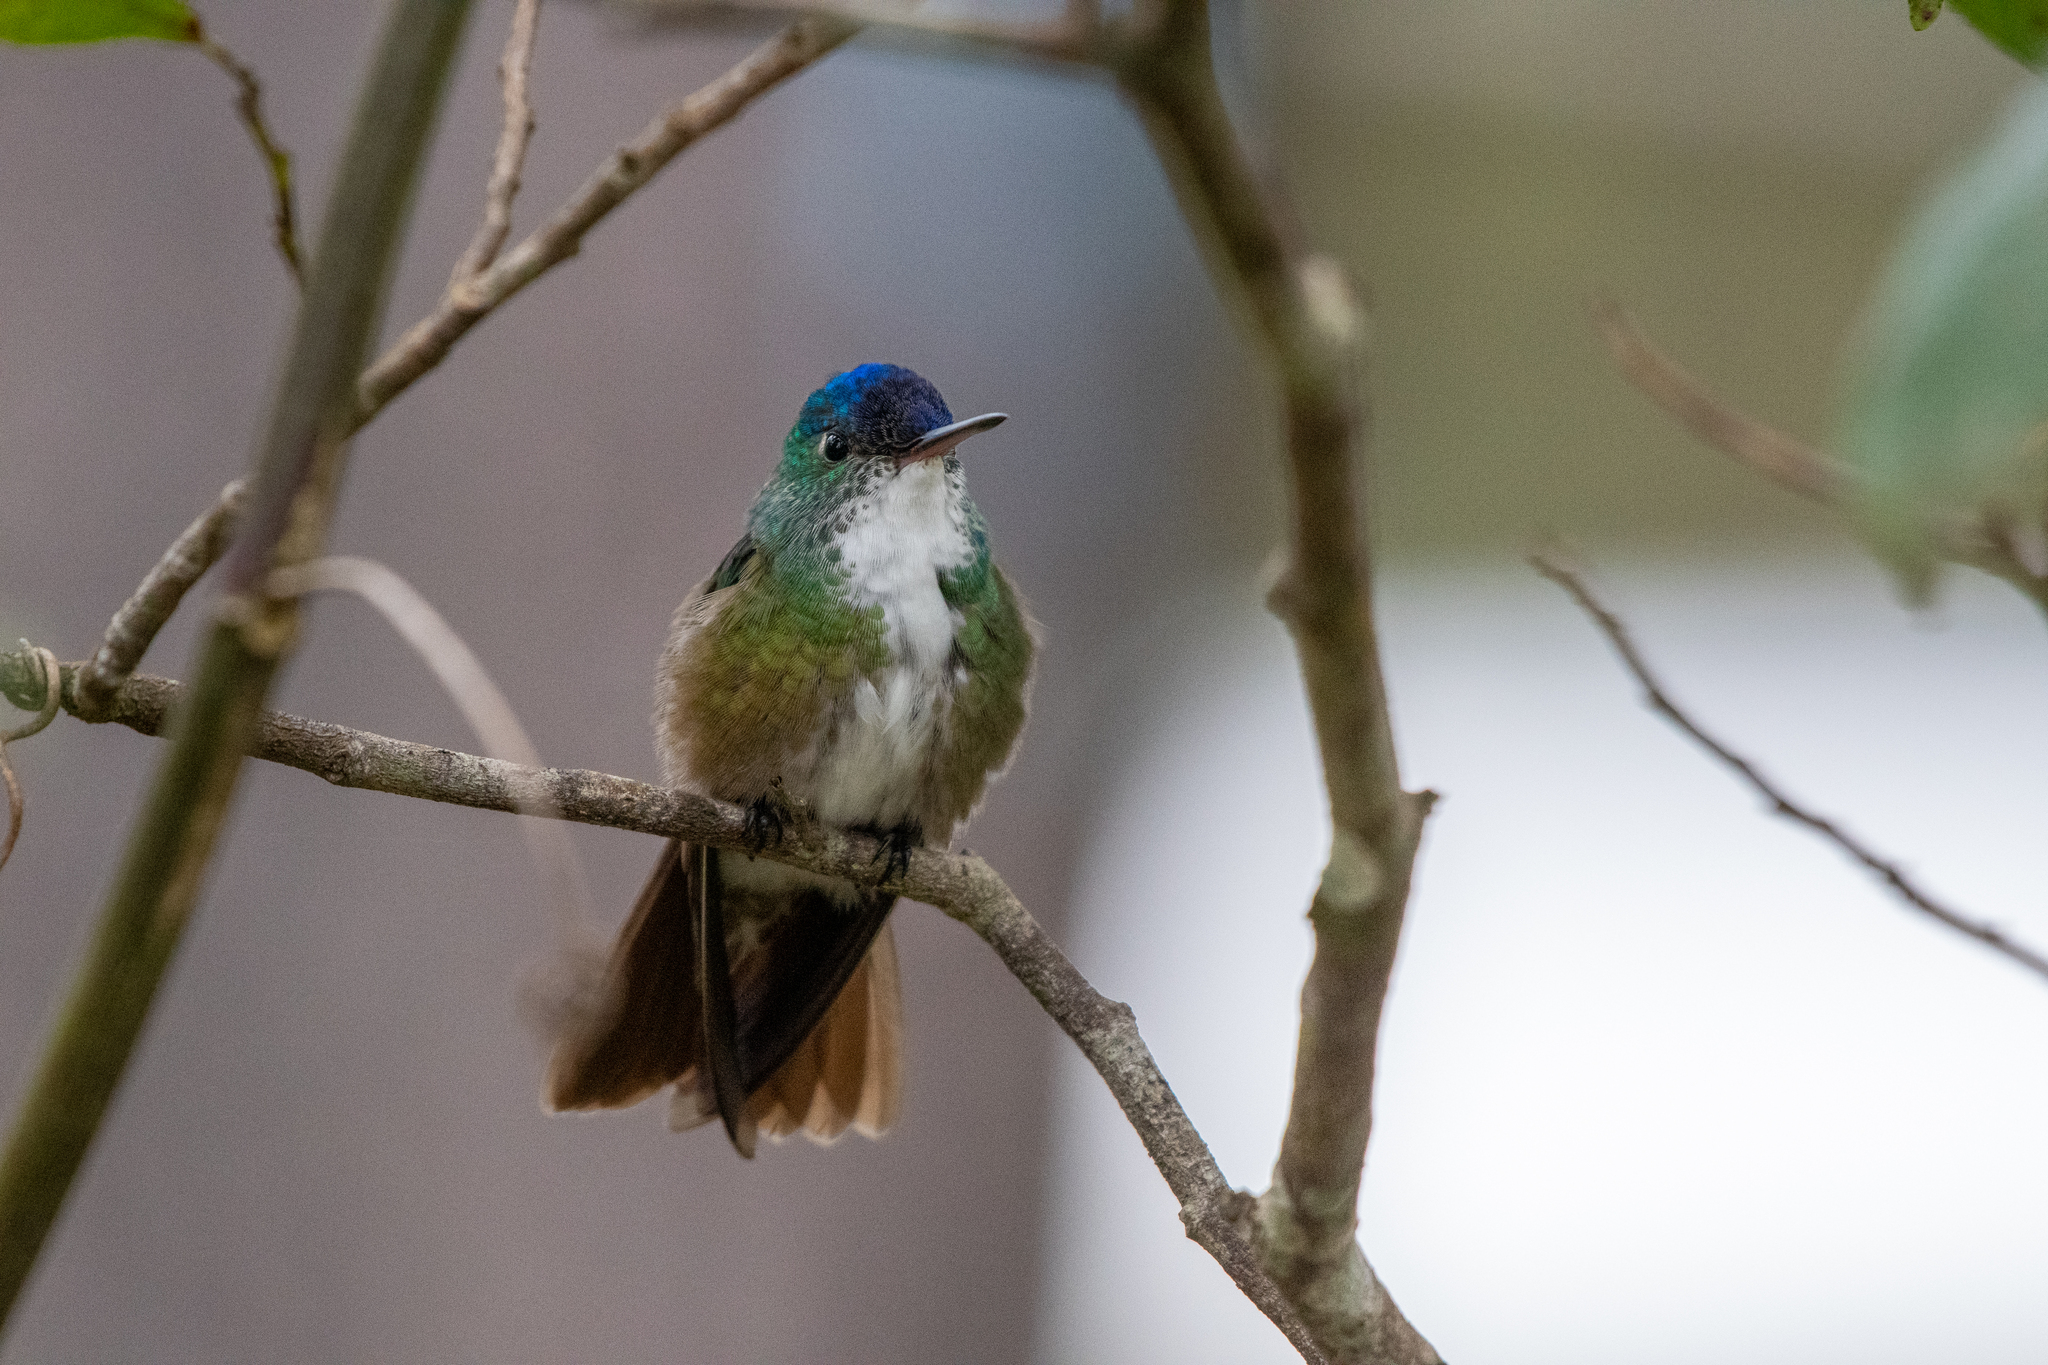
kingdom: Animalia
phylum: Chordata
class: Aves
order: Apodiformes
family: Trochilidae
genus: Saucerottia
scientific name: Saucerottia cyanocephala
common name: Azure-crowned hummingbird
